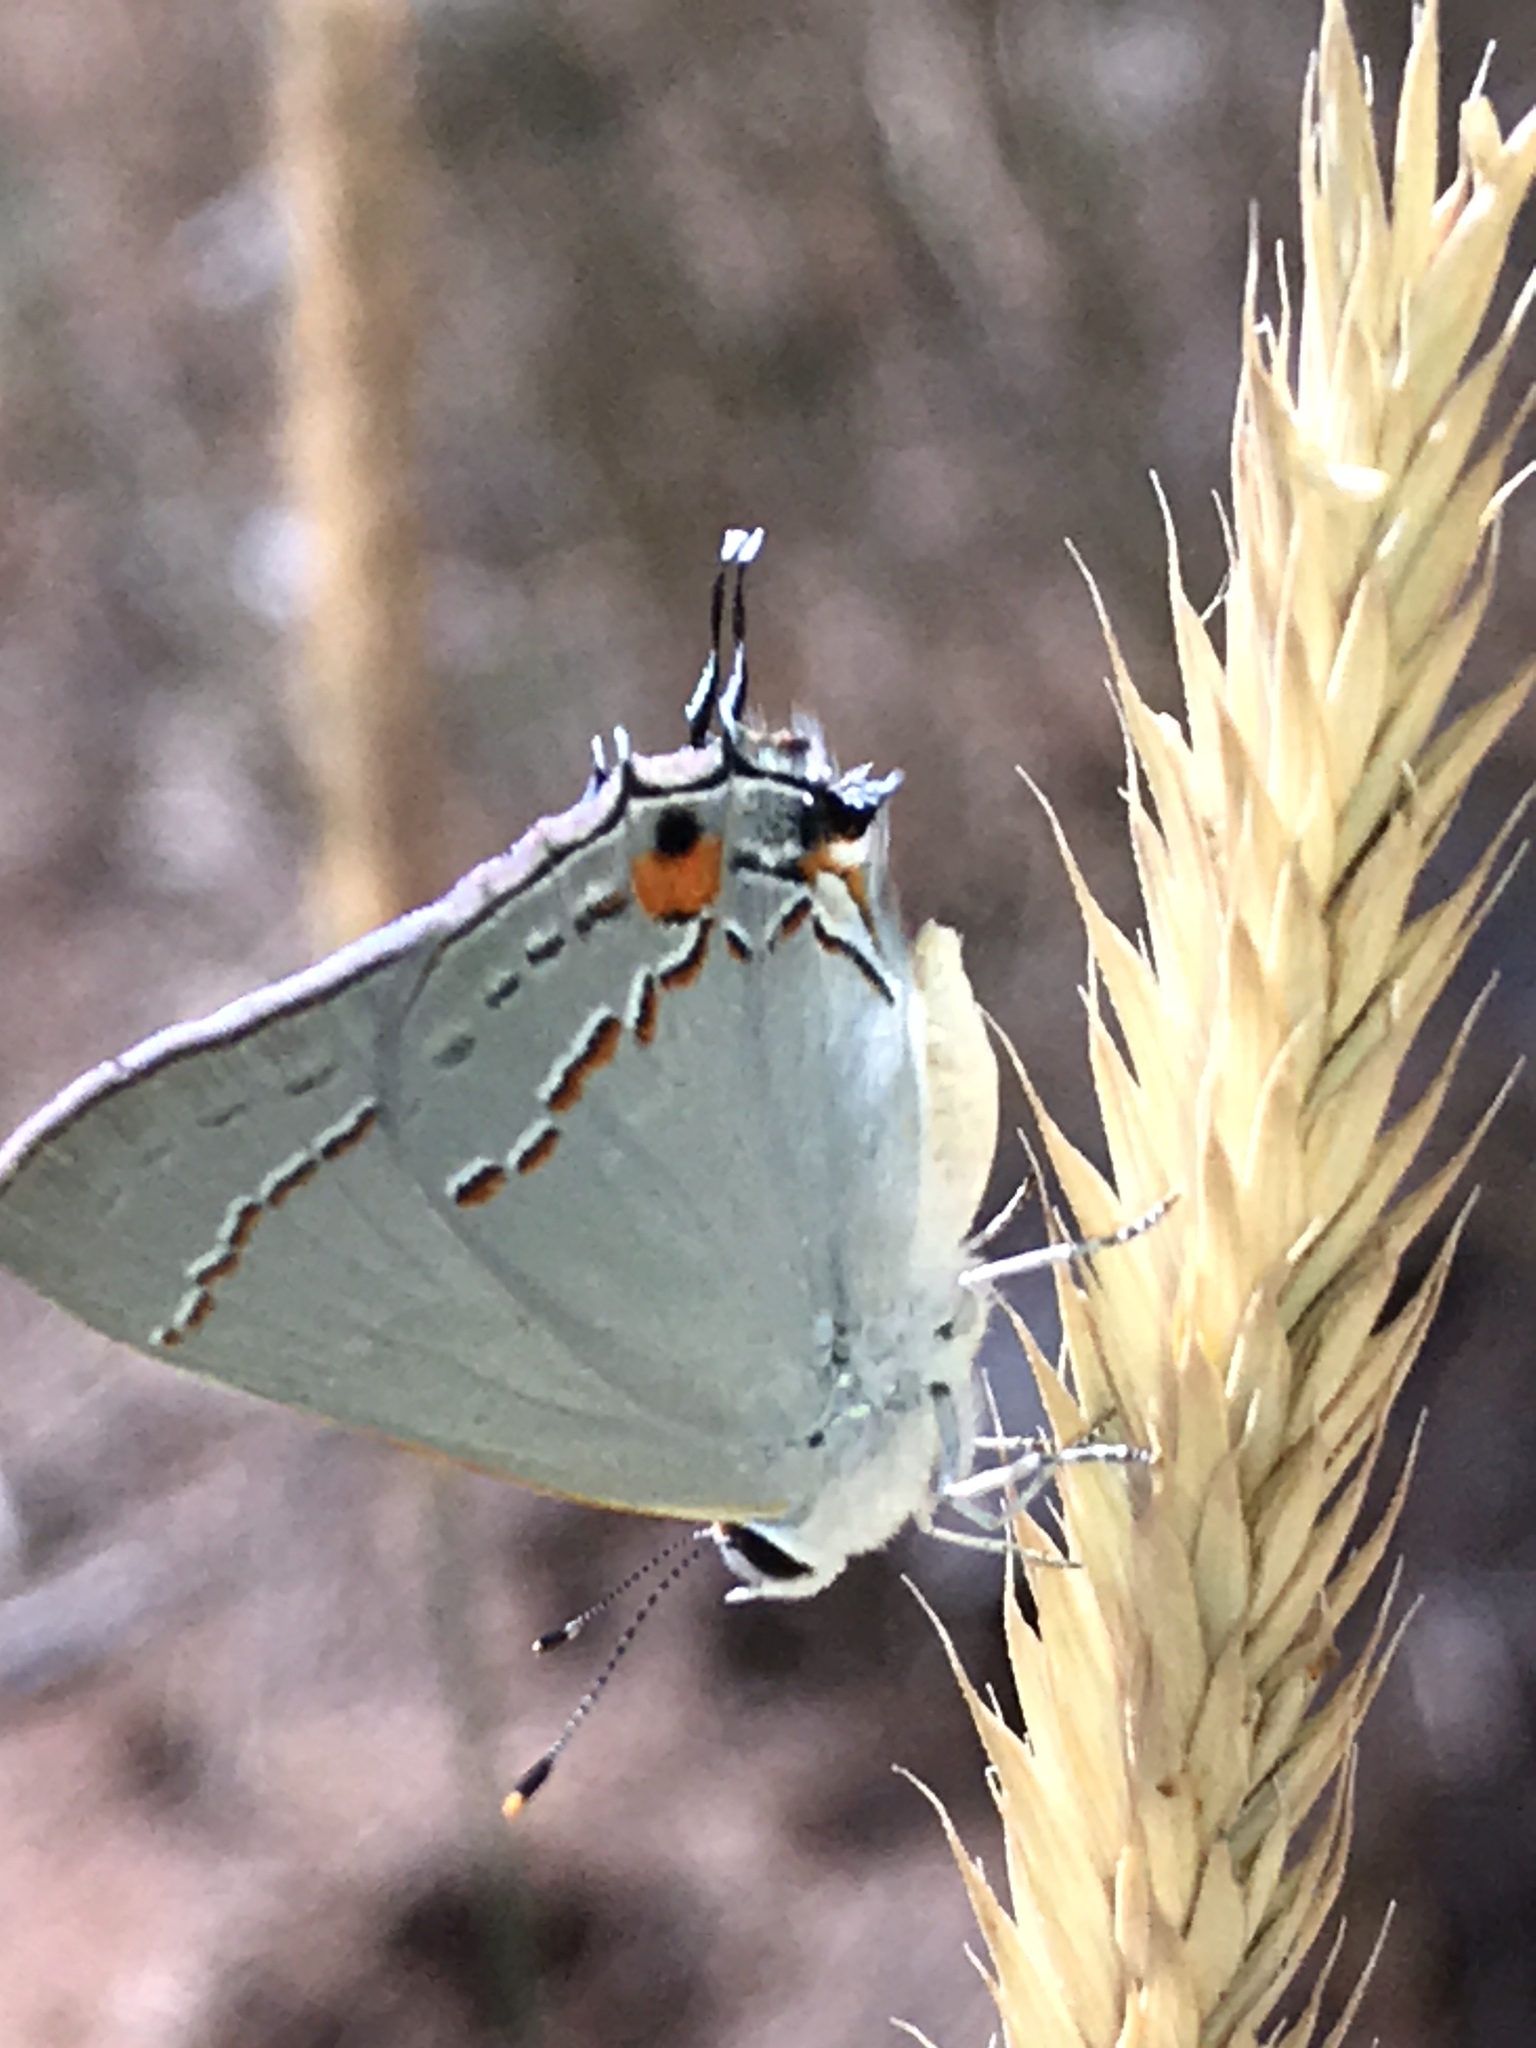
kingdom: Animalia
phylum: Arthropoda
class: Insecta
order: Lepidoptera
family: Lycaenidae
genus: Strymon
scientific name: Strymon melinus
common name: Gray hairstreak
